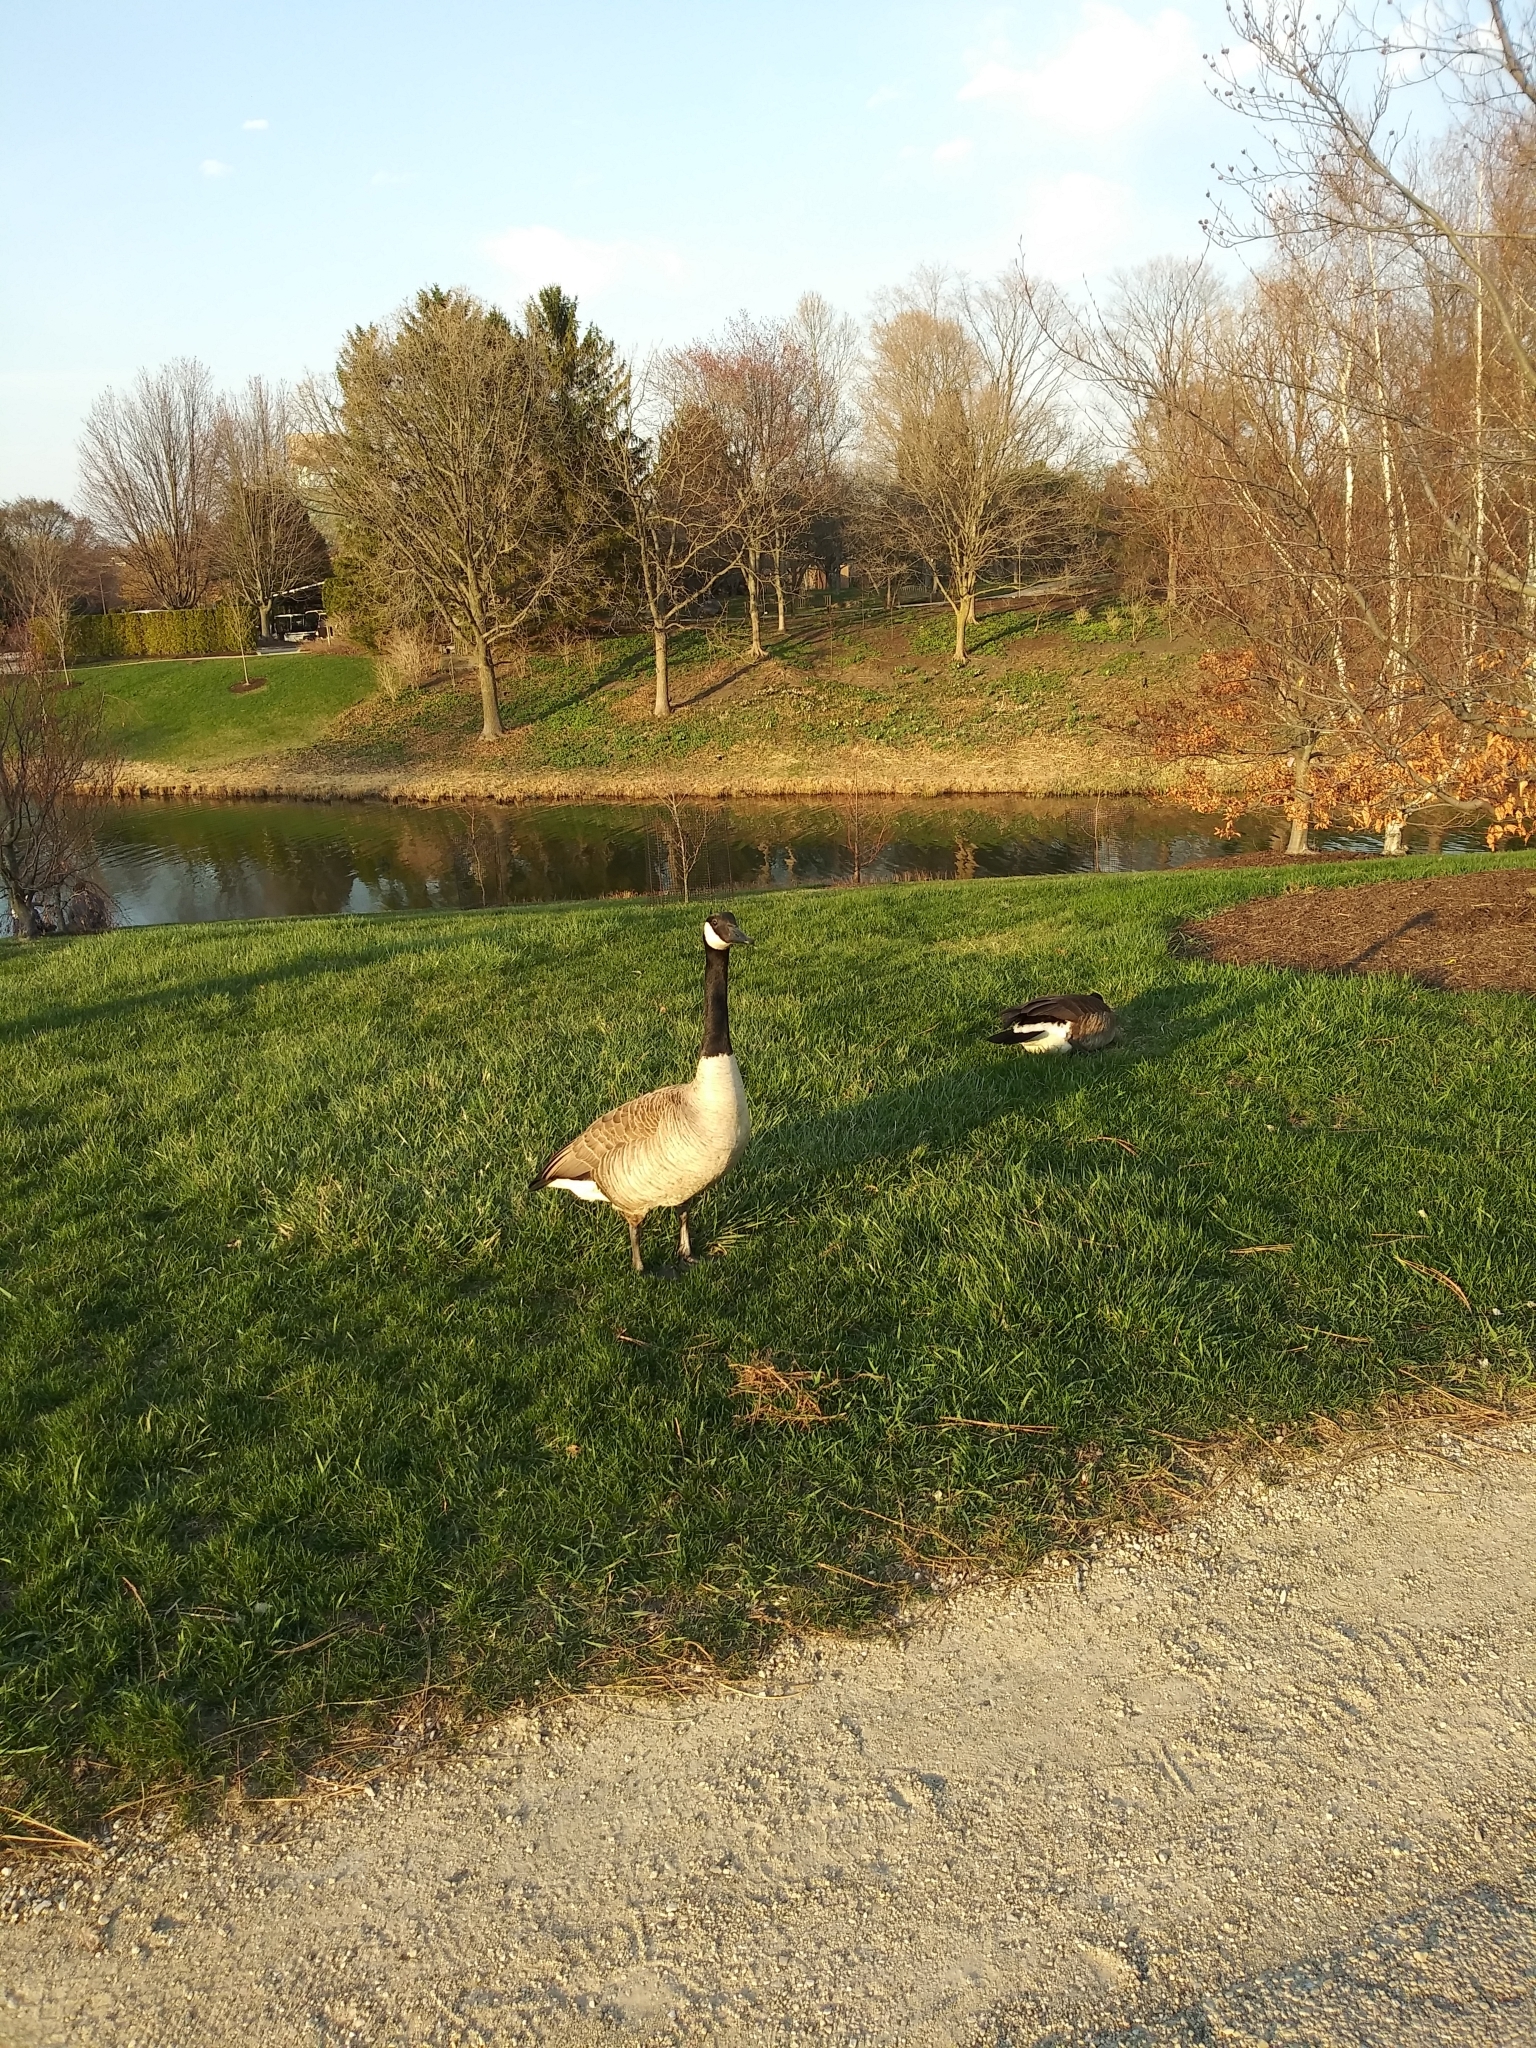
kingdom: Animalia
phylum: Chordata
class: Aves
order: Anseriformes
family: Anatidae
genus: Branta
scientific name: Branta canadensis
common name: Canada goose
